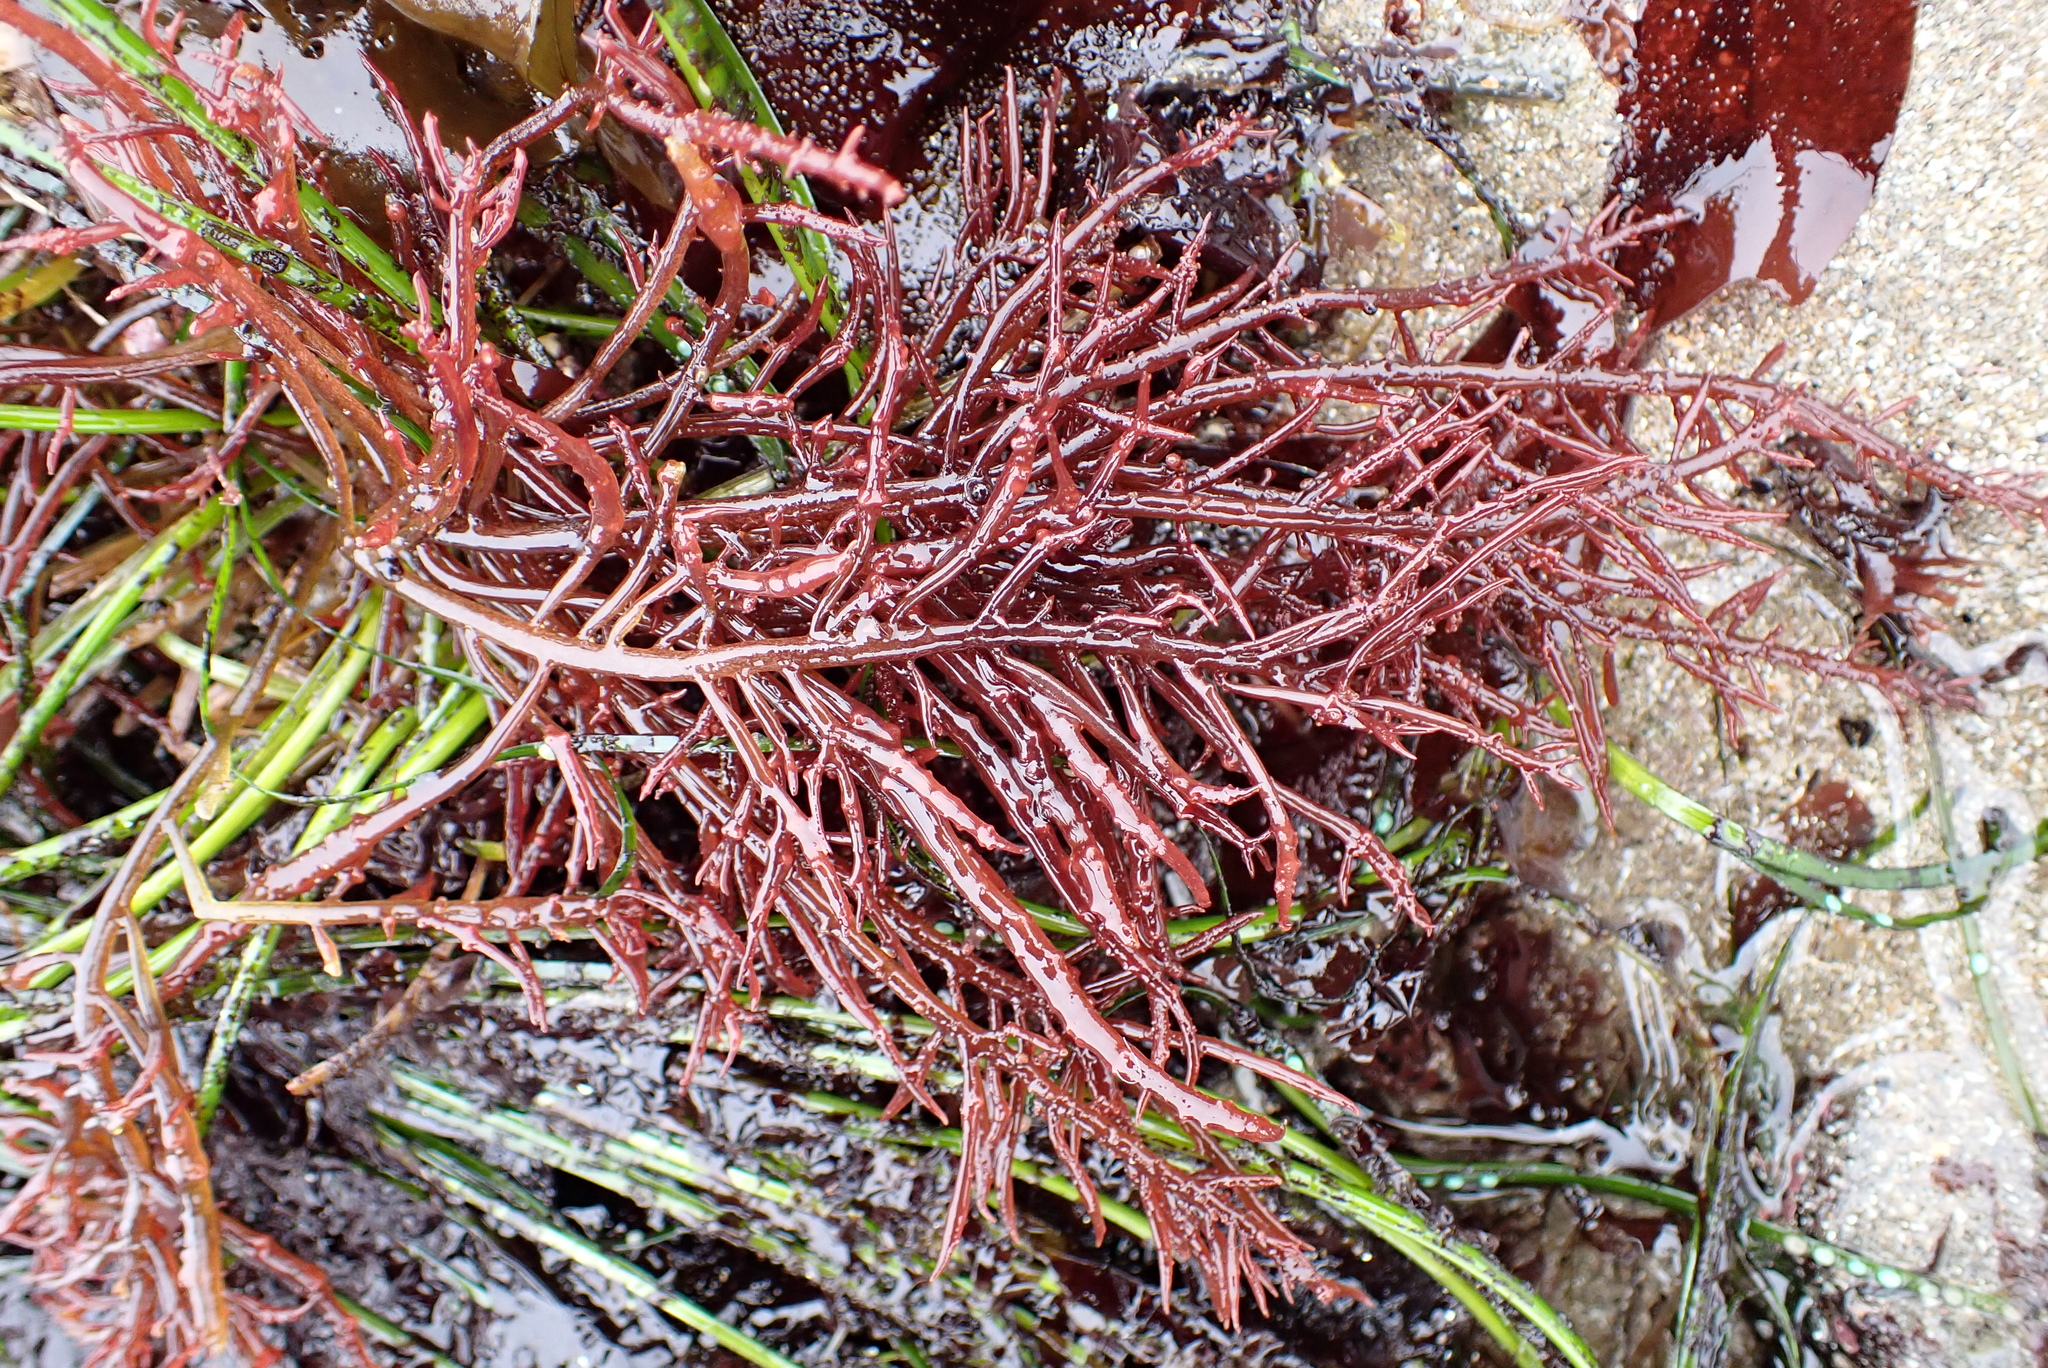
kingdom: Plantae
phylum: Rhodophyta
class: Florideophyceae
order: Gigartinales
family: Solieriaceae
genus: Sarcodiotheca
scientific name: Sarcodiotheca gaudichaudii
